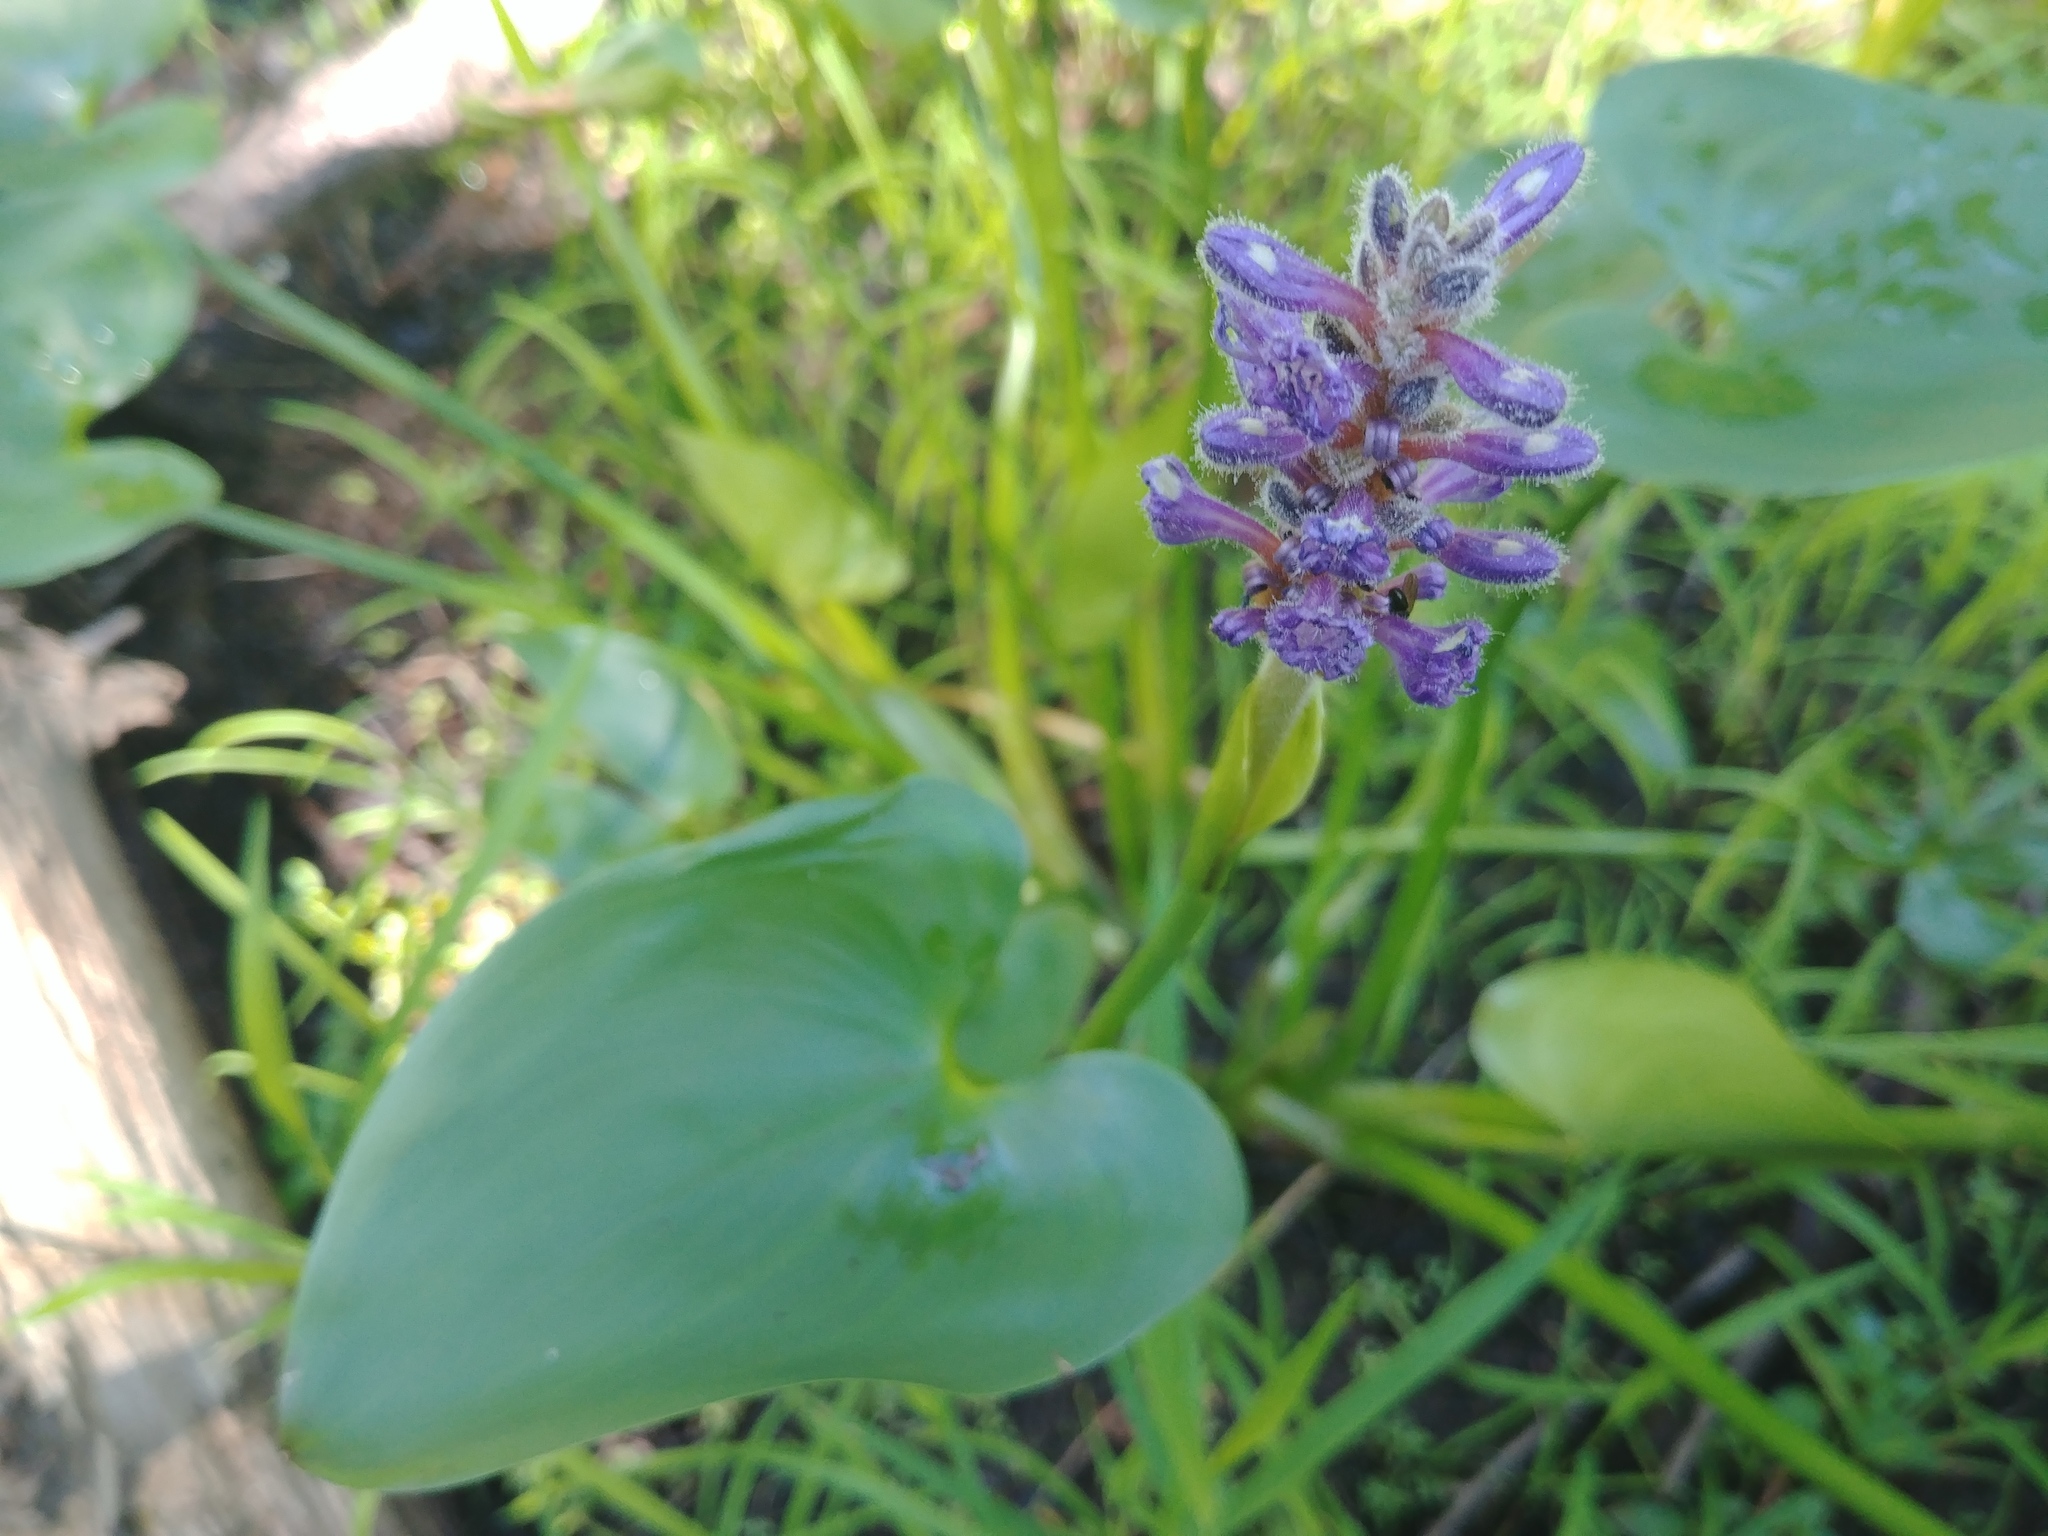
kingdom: Plantae
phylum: Tracheophyta
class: Liliopsida
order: Commelinales
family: Pontederiaceae
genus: Pontederia
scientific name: Pontederia cordata
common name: Pickerelweed
